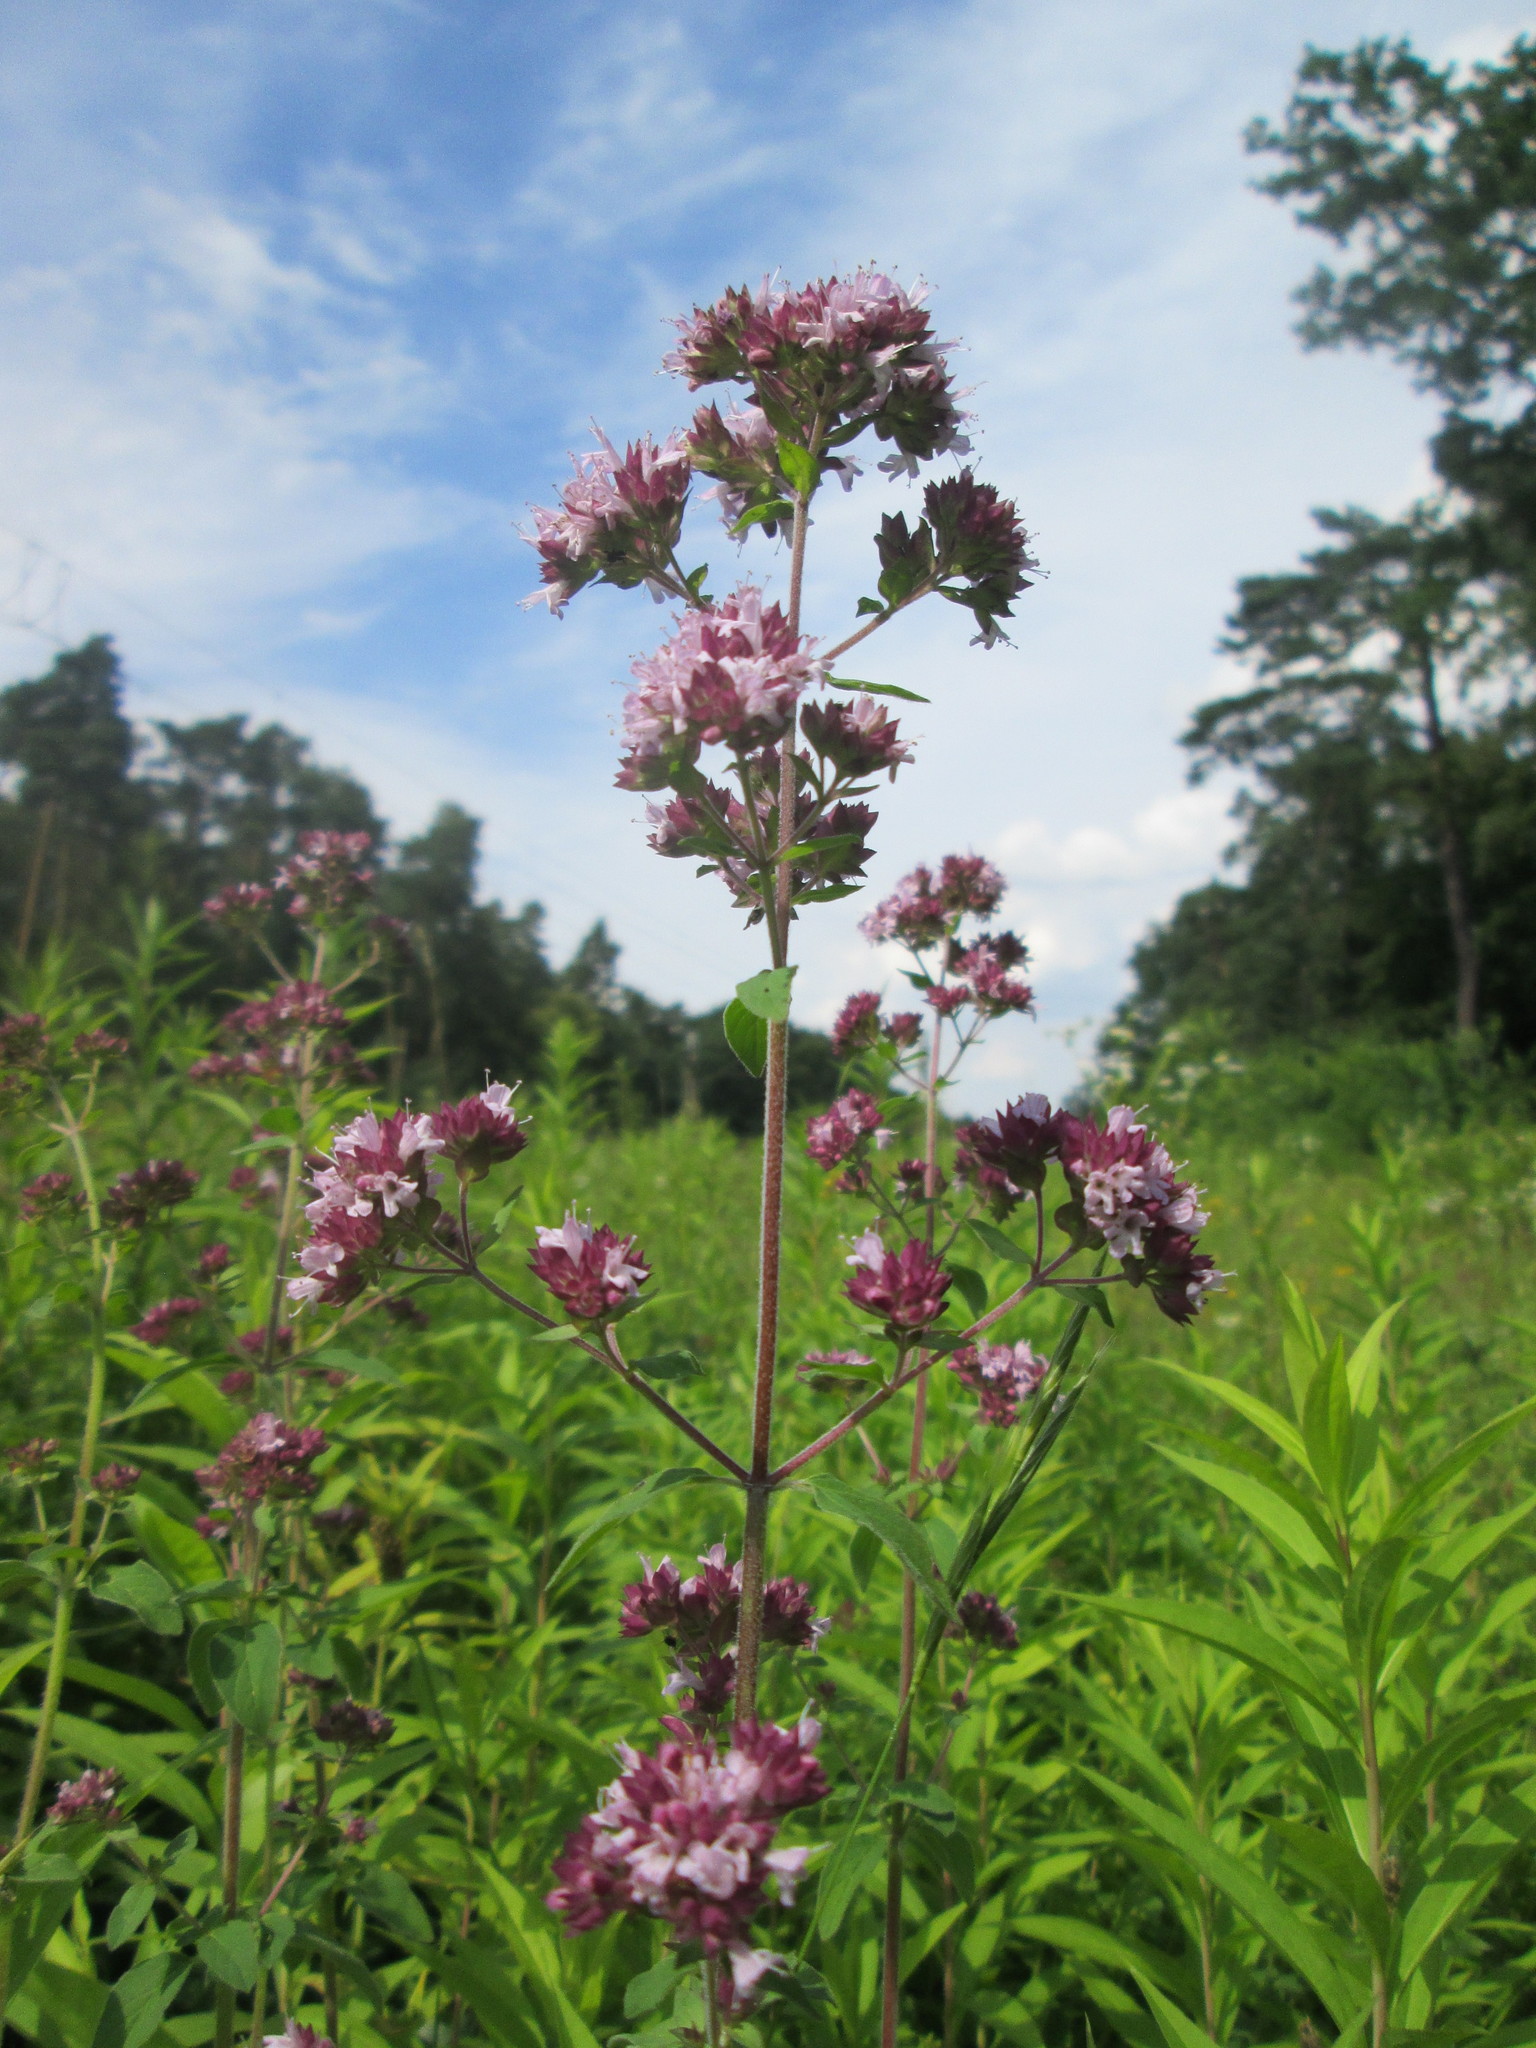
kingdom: Plantae
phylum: Tracheophyta
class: Magnoliopsida
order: Lamiales
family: Lamiaceae
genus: Origanum
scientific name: Origanum vulgare
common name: Wild marjoram
